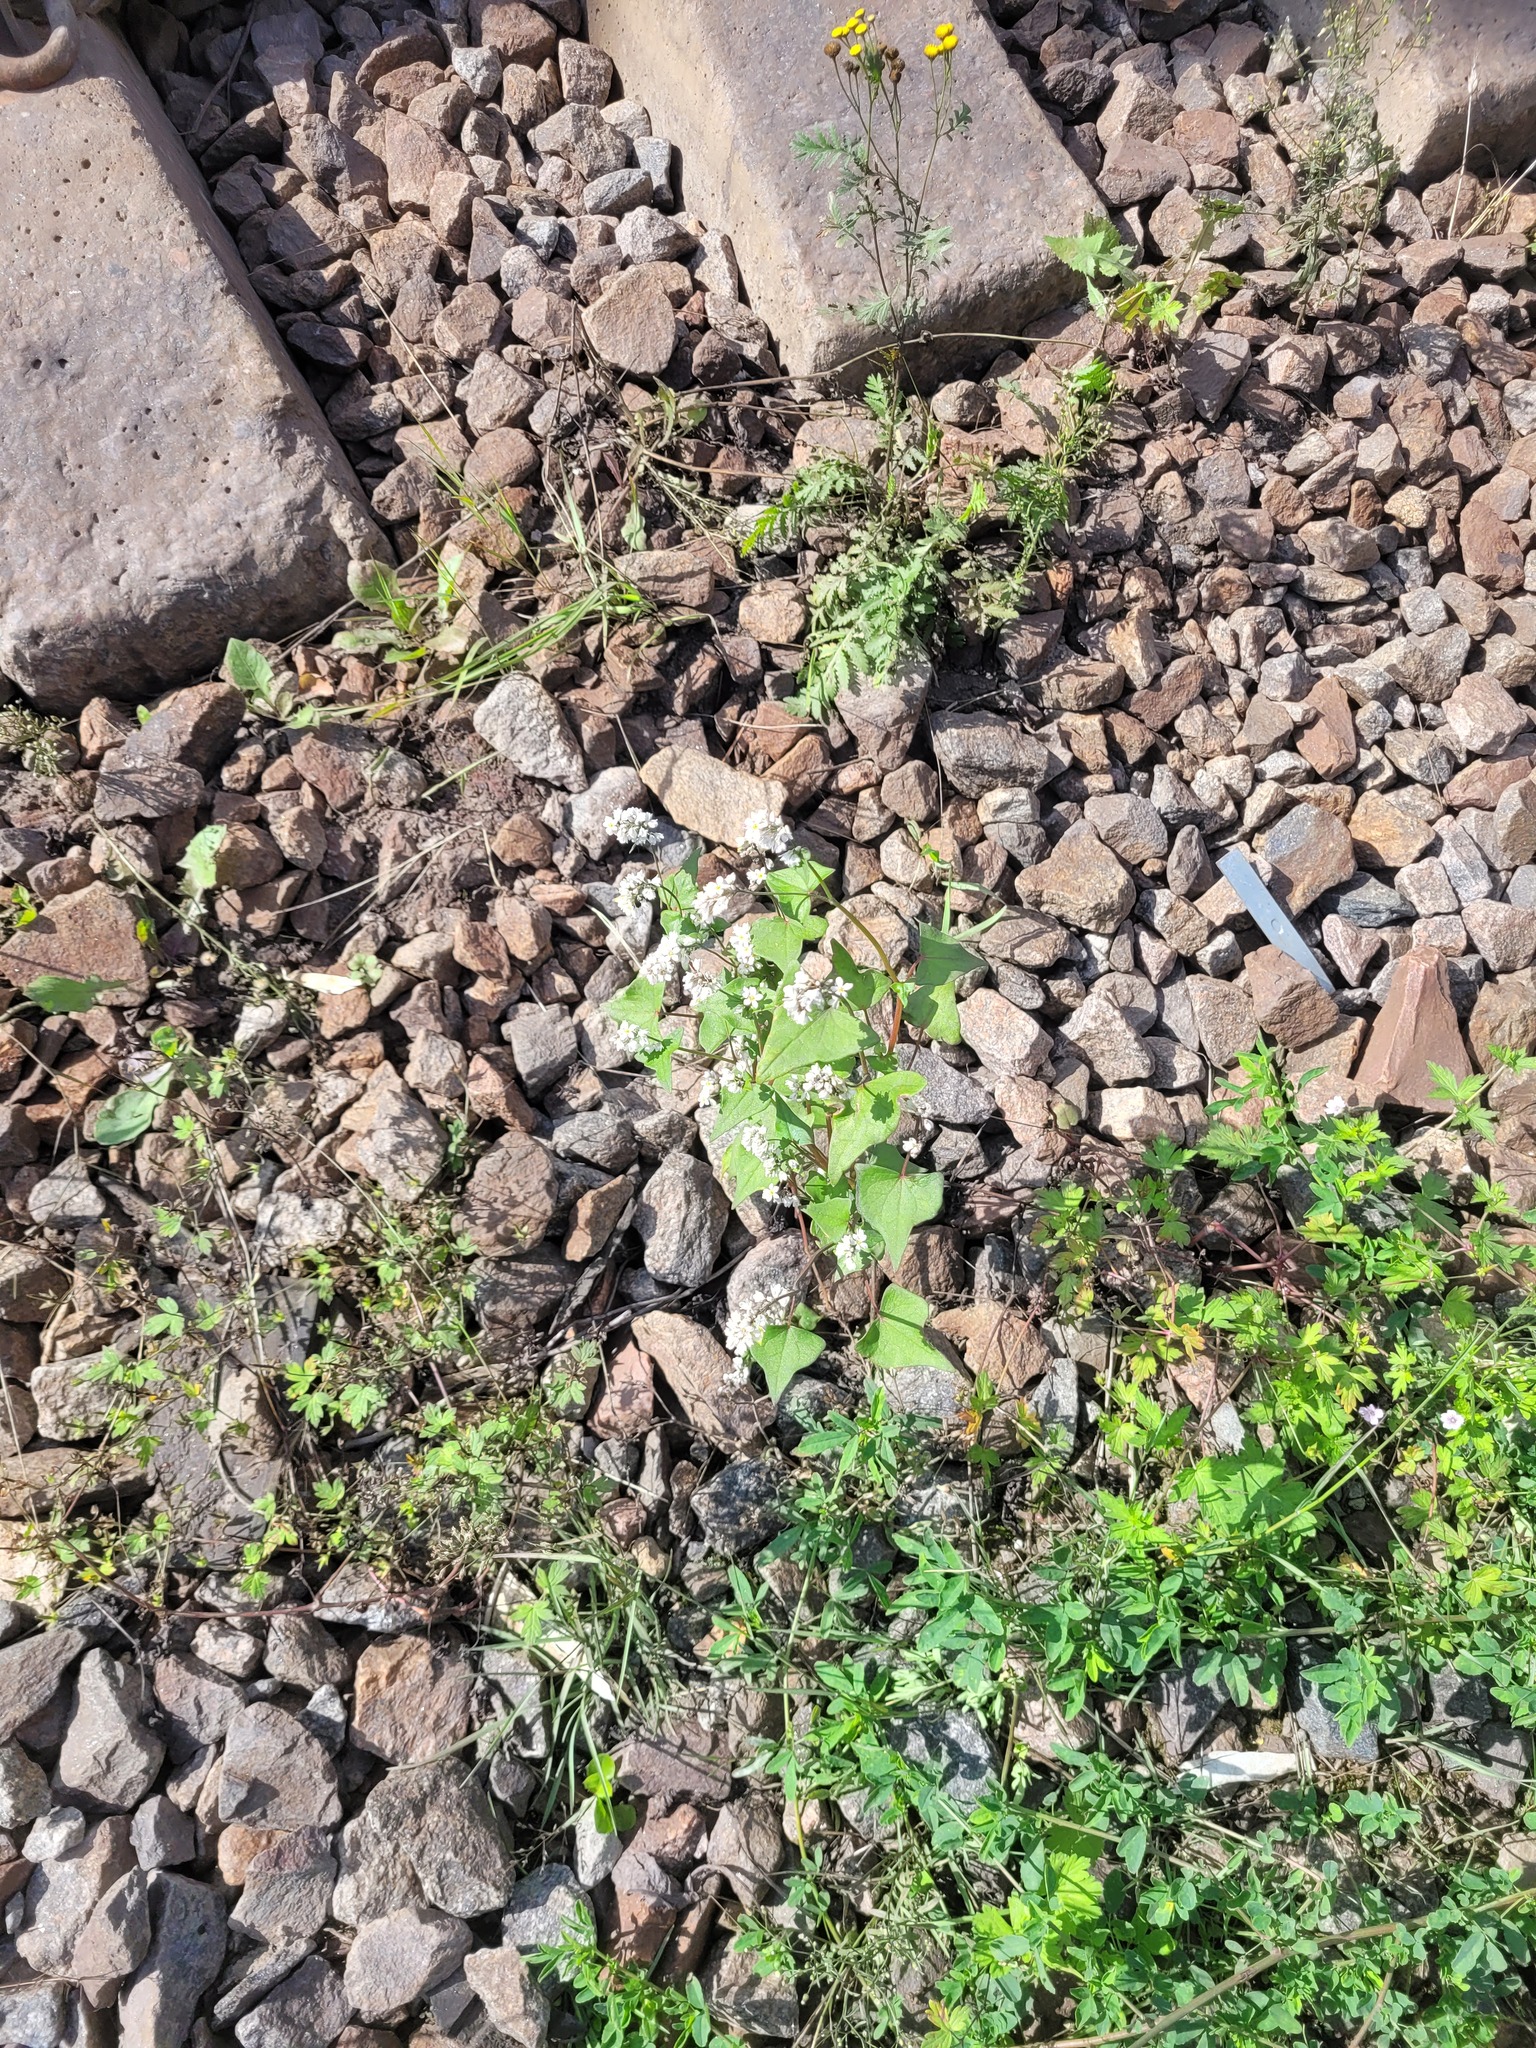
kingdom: Plantae
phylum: Tracheophyta
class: Magnoliopsida
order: Caryophyllales
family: Polygonaceae
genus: Fagopyrum
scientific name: Fagopyrum esculentum
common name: Buckwheat
